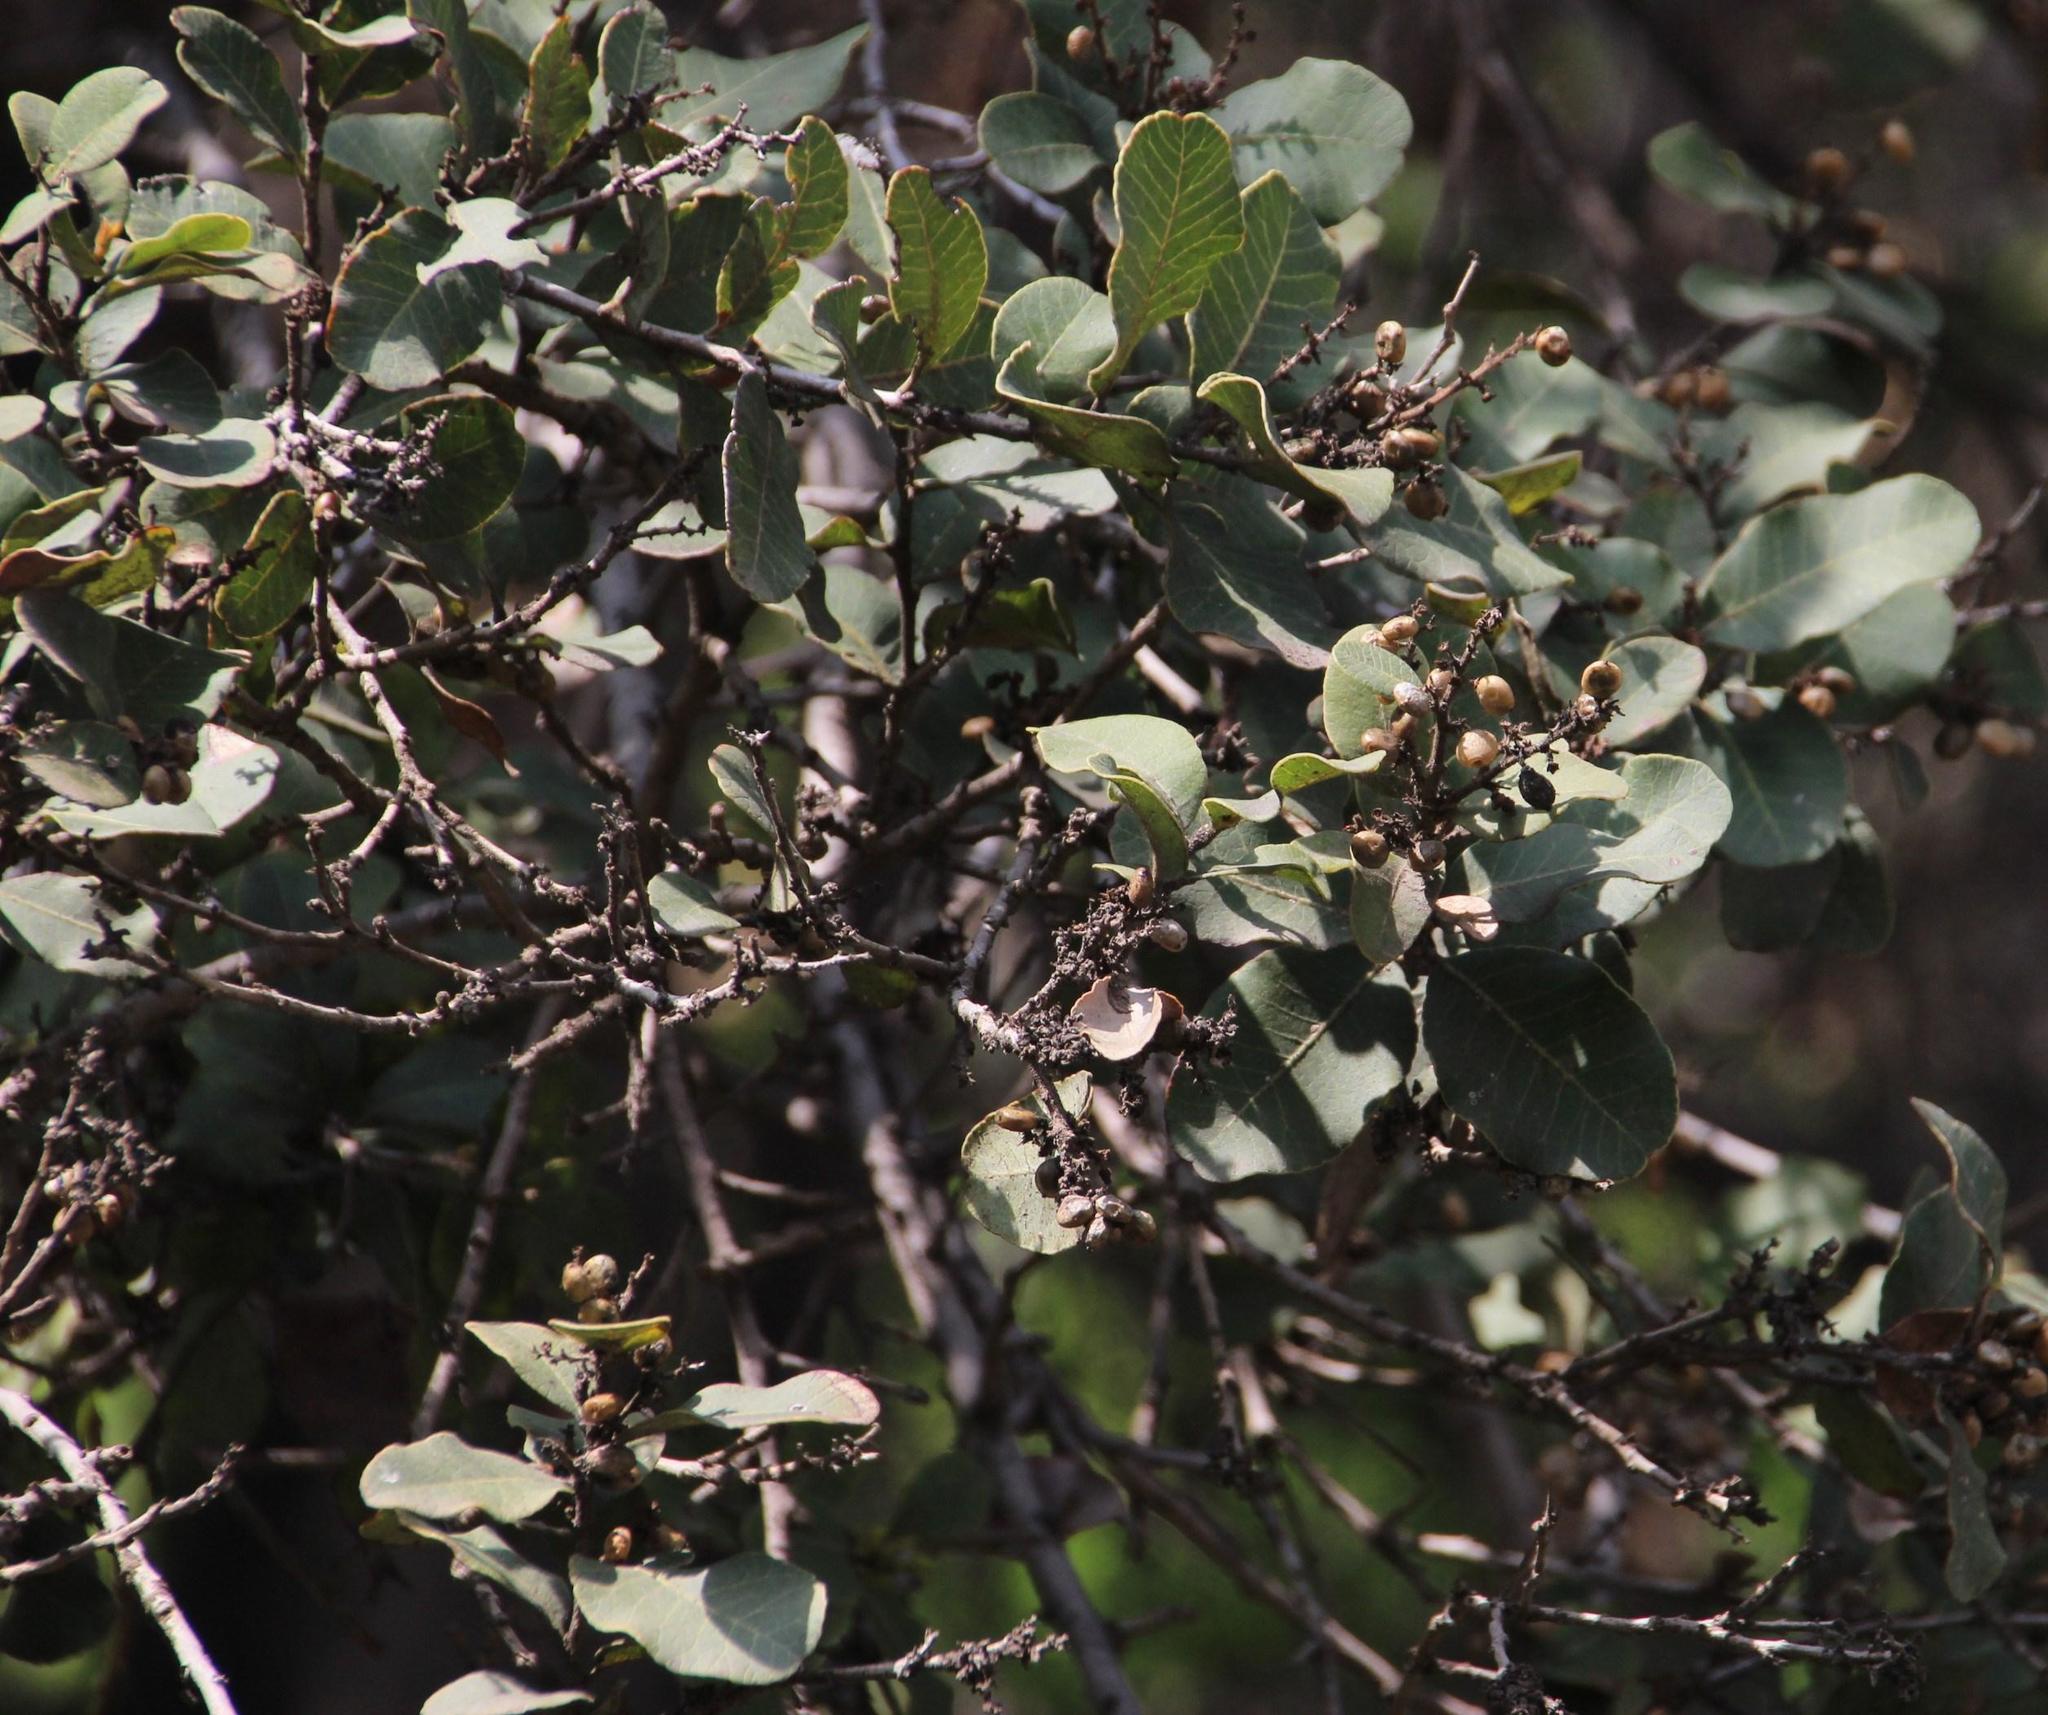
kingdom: Plantae
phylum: Tracheophyta
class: Magnoliopsida
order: Sapindales
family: Anacardiaceae
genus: Lithraea
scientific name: Lithraea caustica
